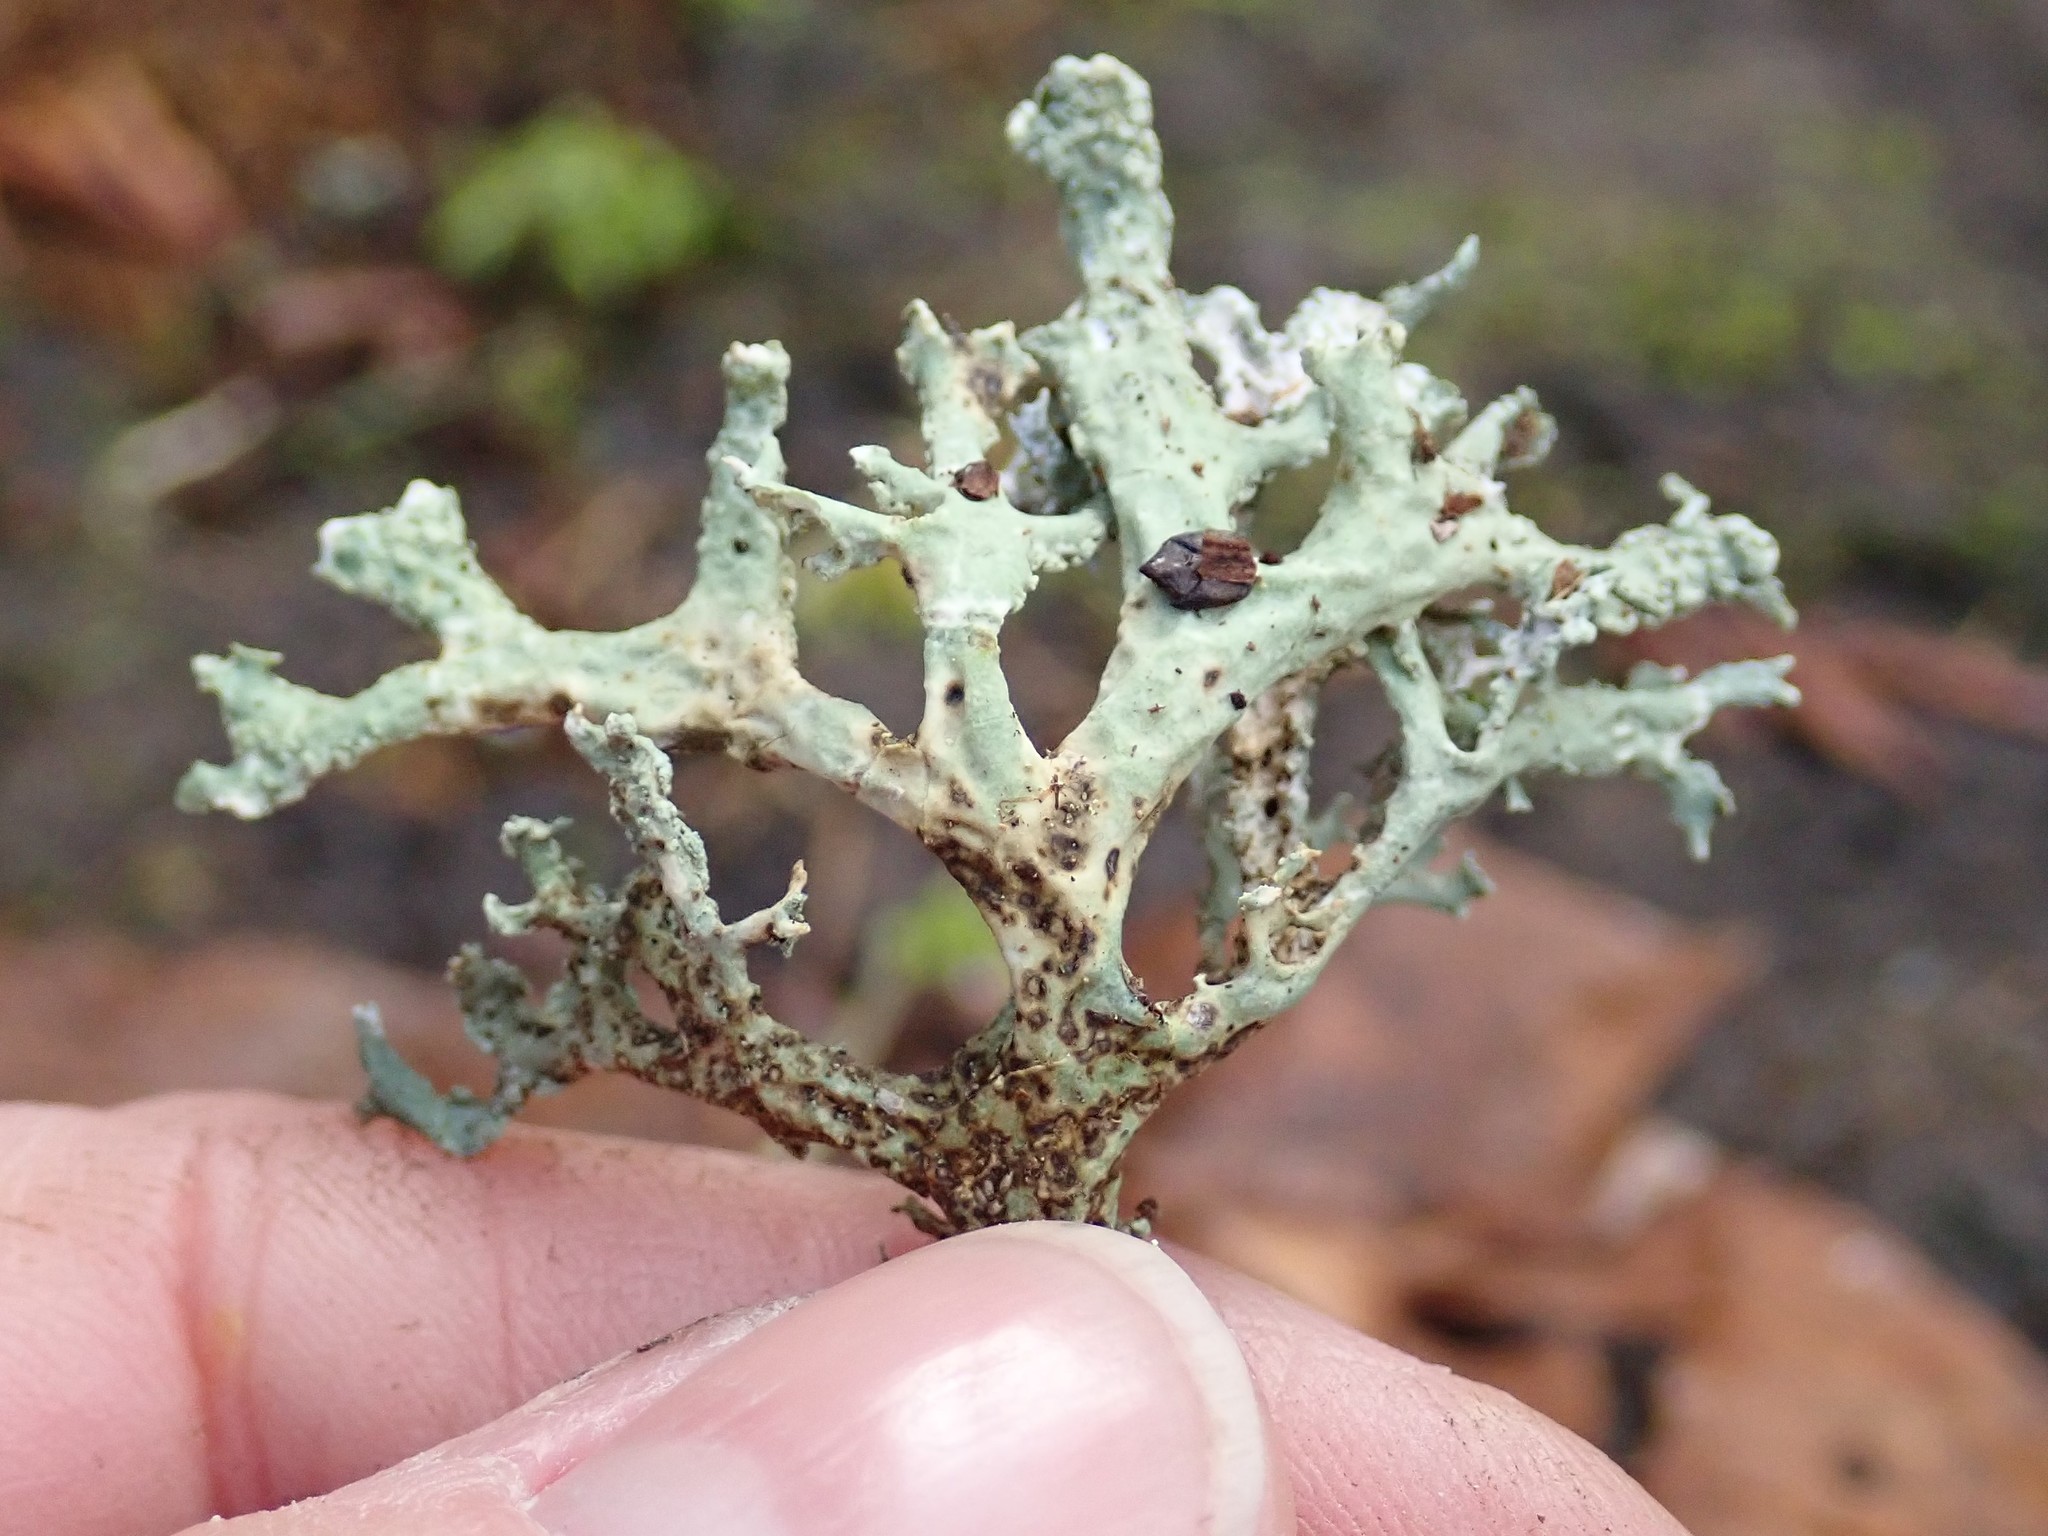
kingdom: Fungi
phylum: Ascomycota
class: Lecanoromycetes
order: Lecanorales
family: Parmeliaceae
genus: Evernia
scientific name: Evernia prunastri
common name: Oak moss
